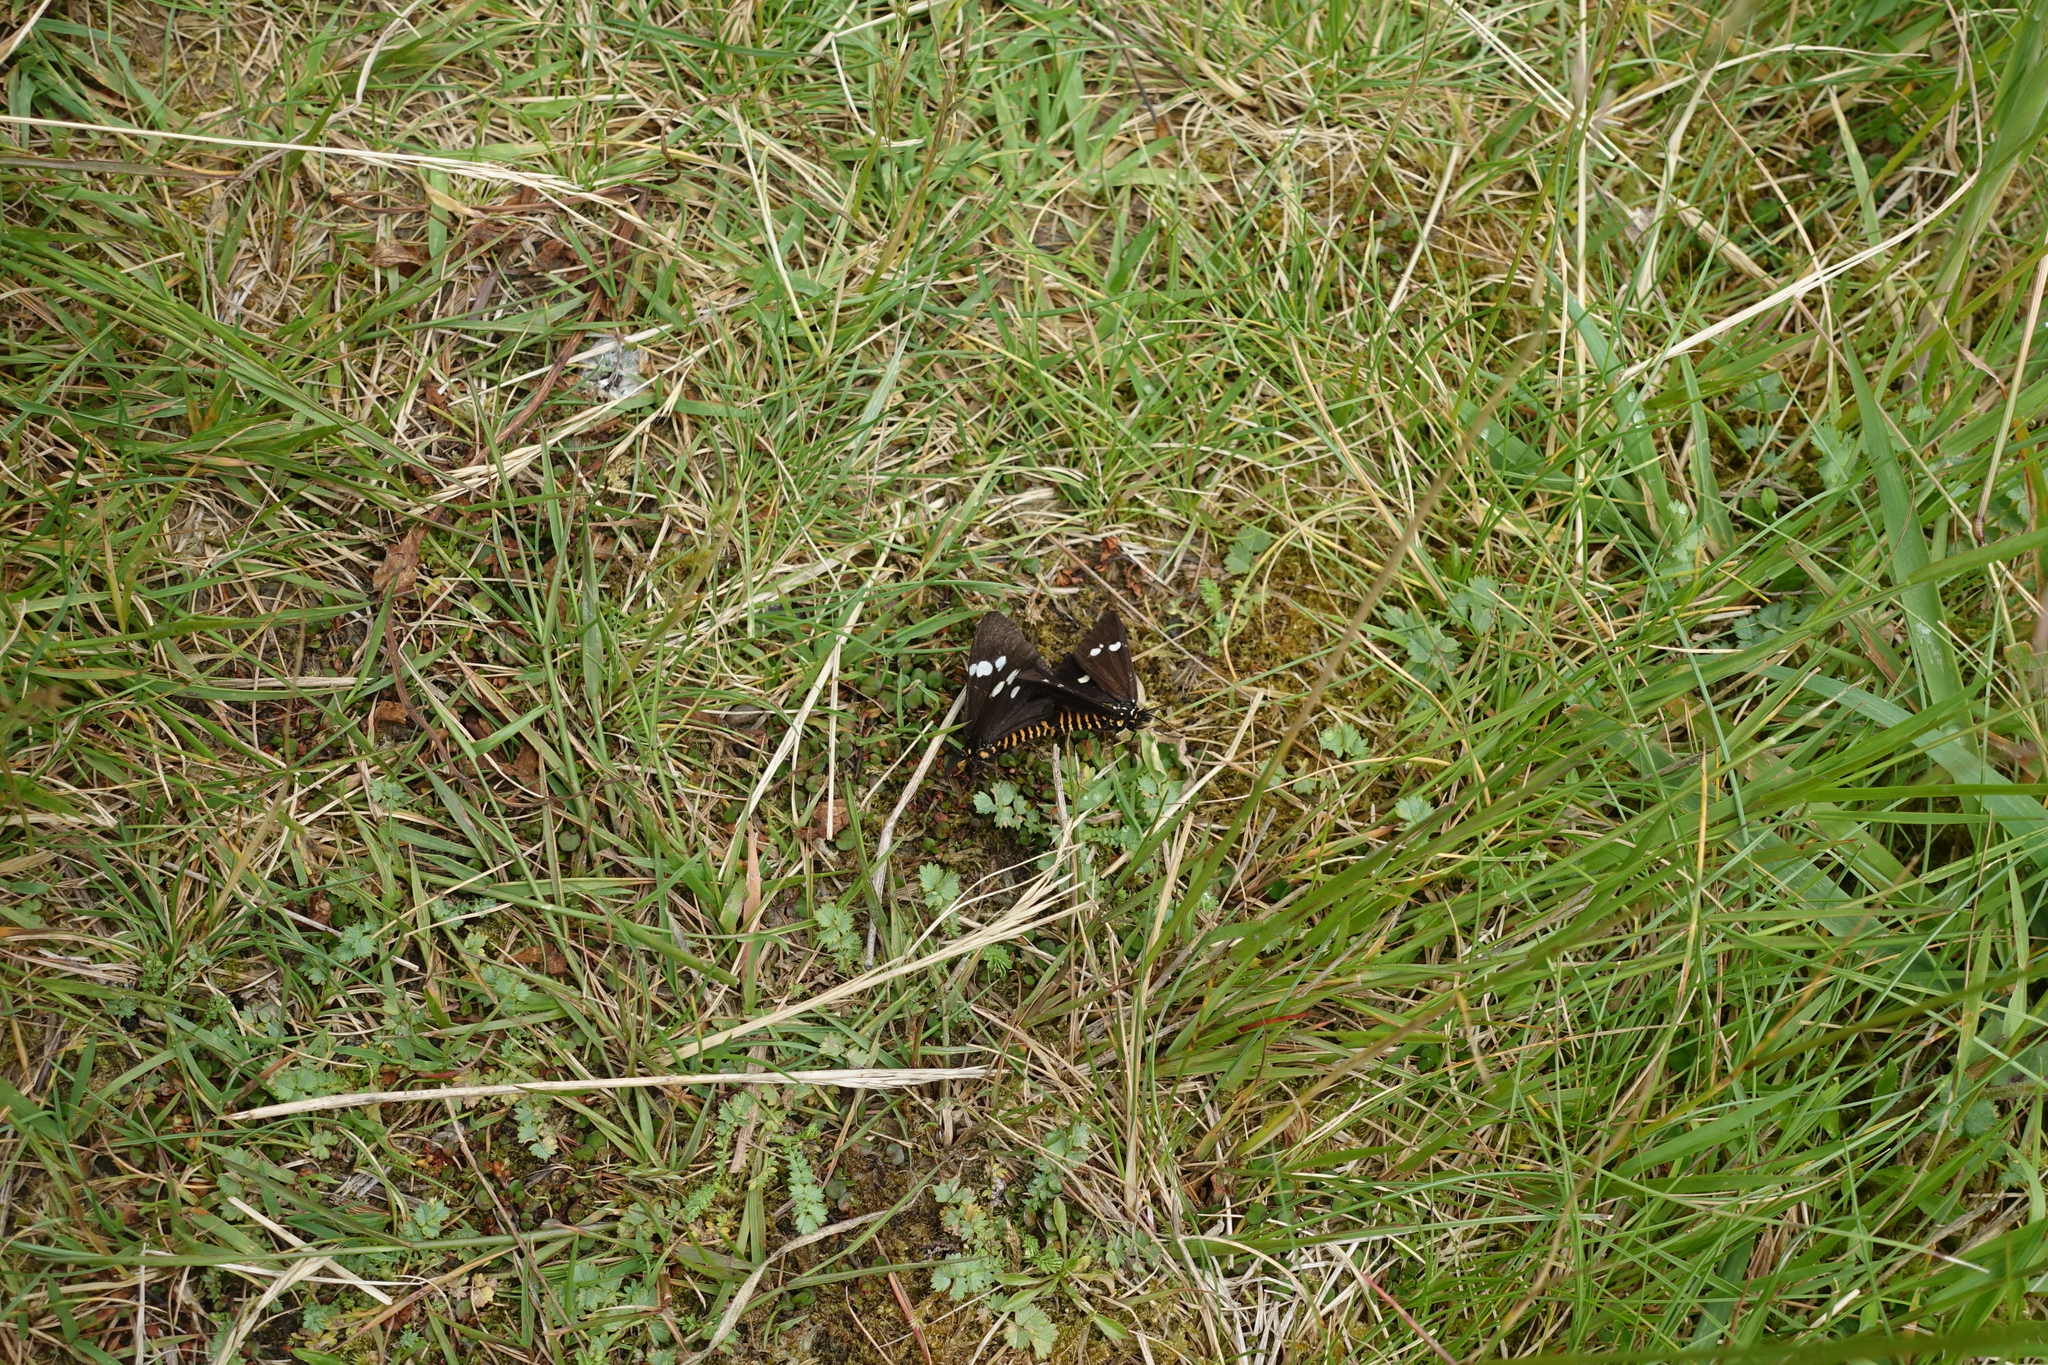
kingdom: Animalia
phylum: Arthropoda
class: Insecta
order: Lepidoptera
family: Erebidae
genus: Nyctemera
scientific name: Nyctemera annulatum
